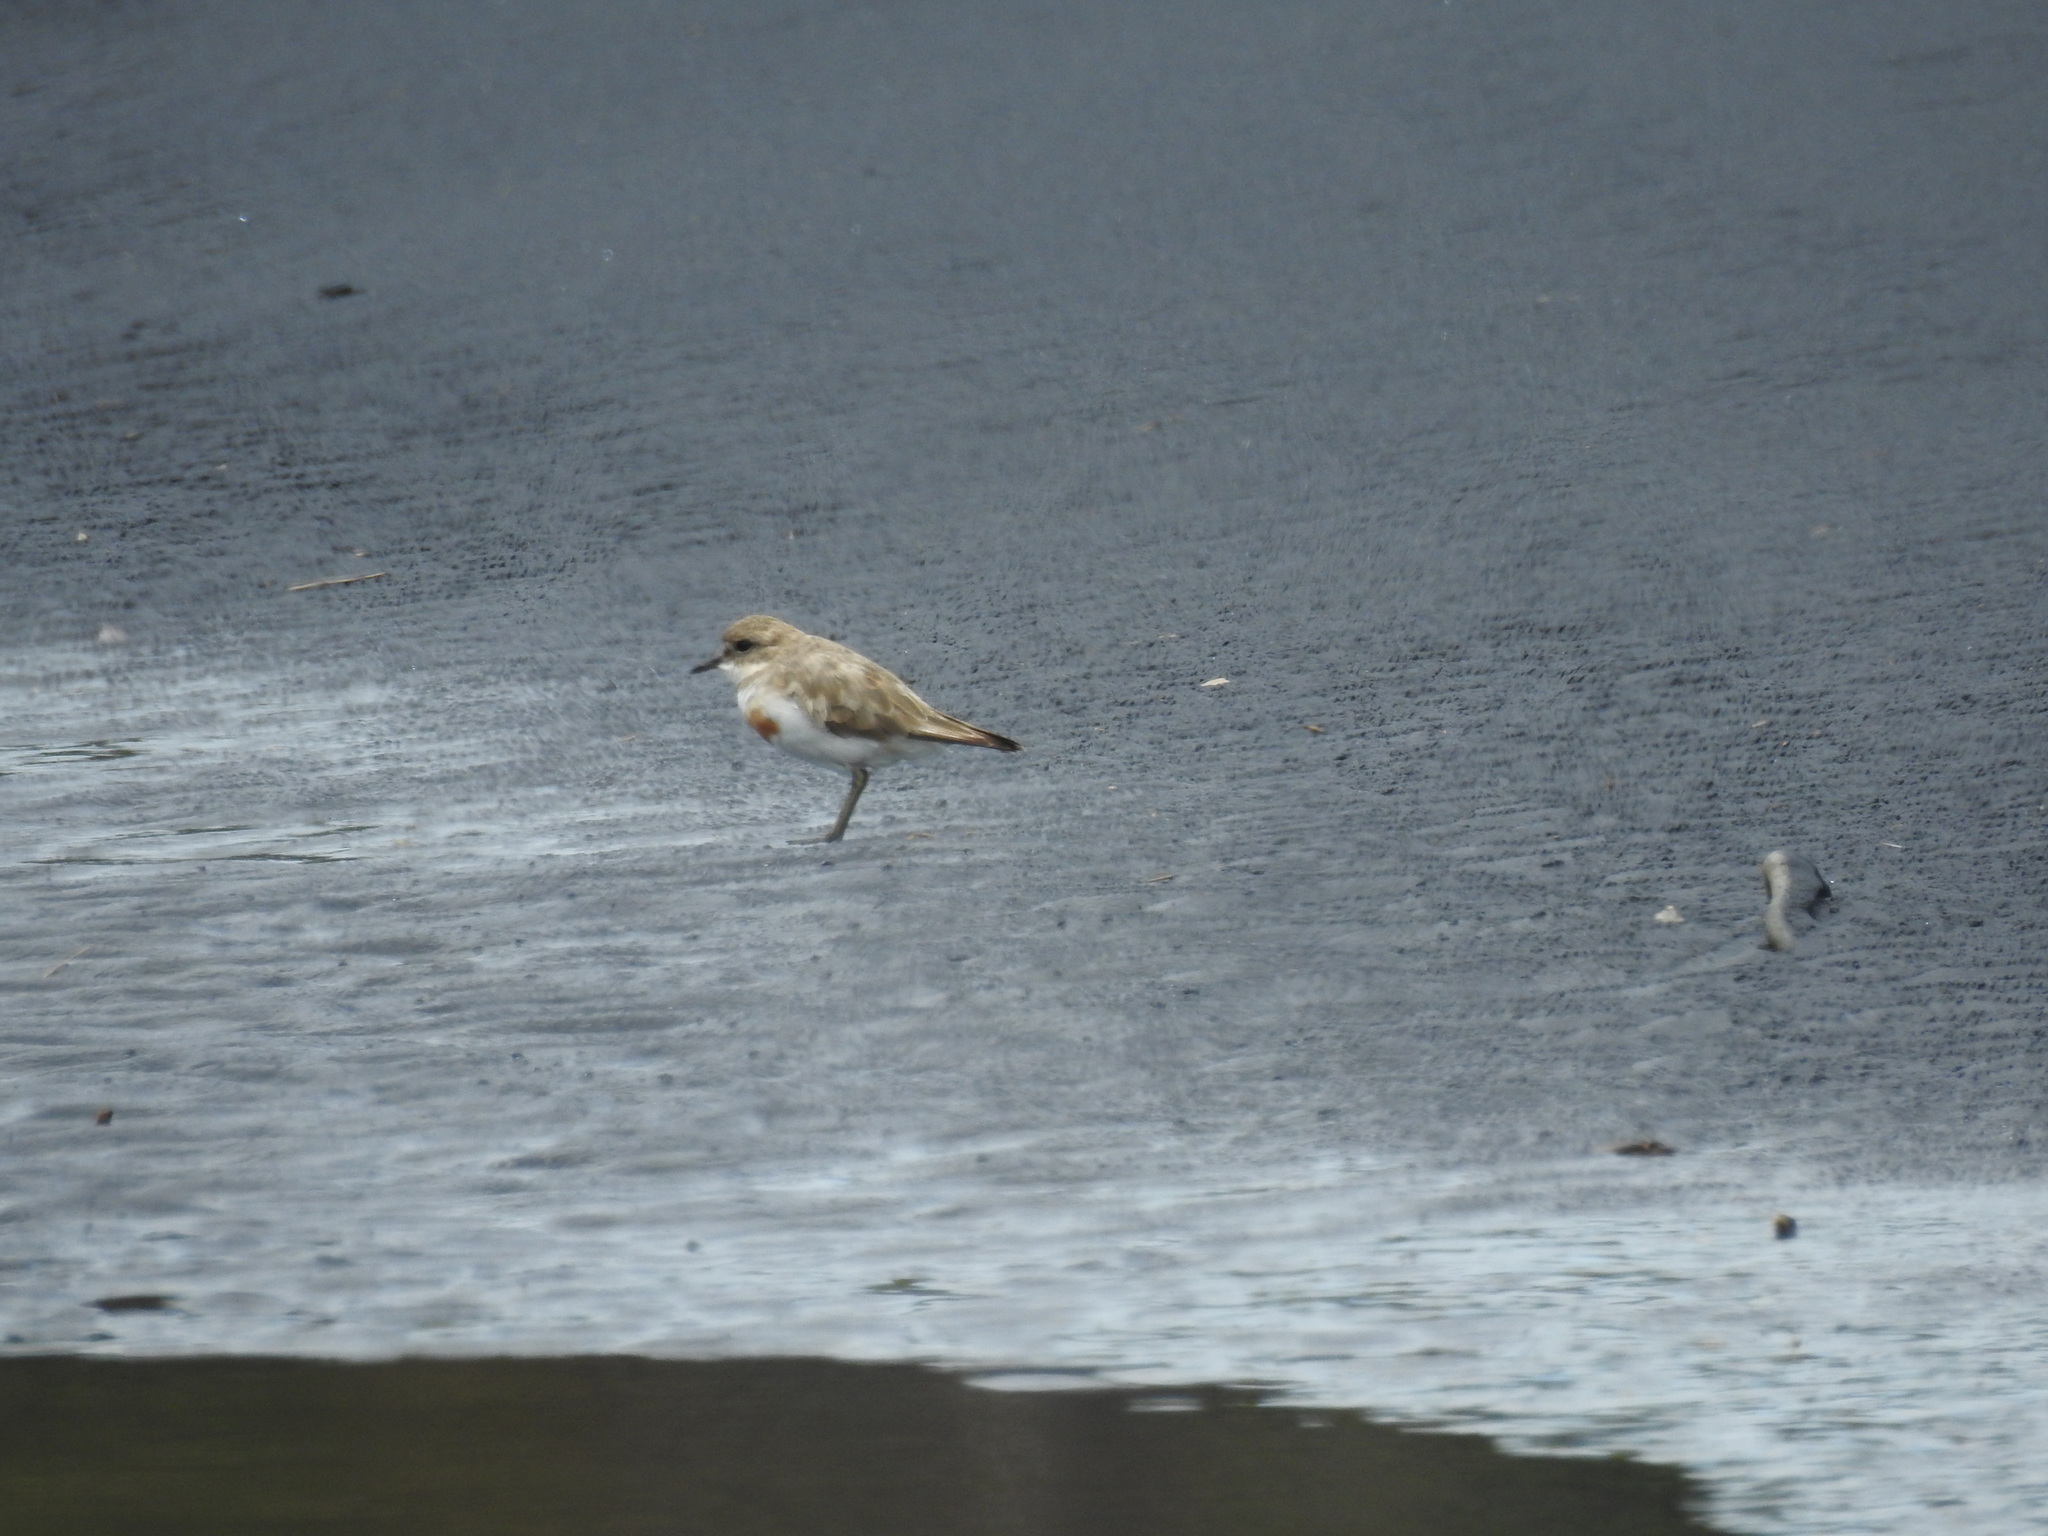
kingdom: Animalia
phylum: Chordata
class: Aves
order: Charadriiformes
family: Charadriidae
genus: Anarhynchus
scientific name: Anarhynchus
